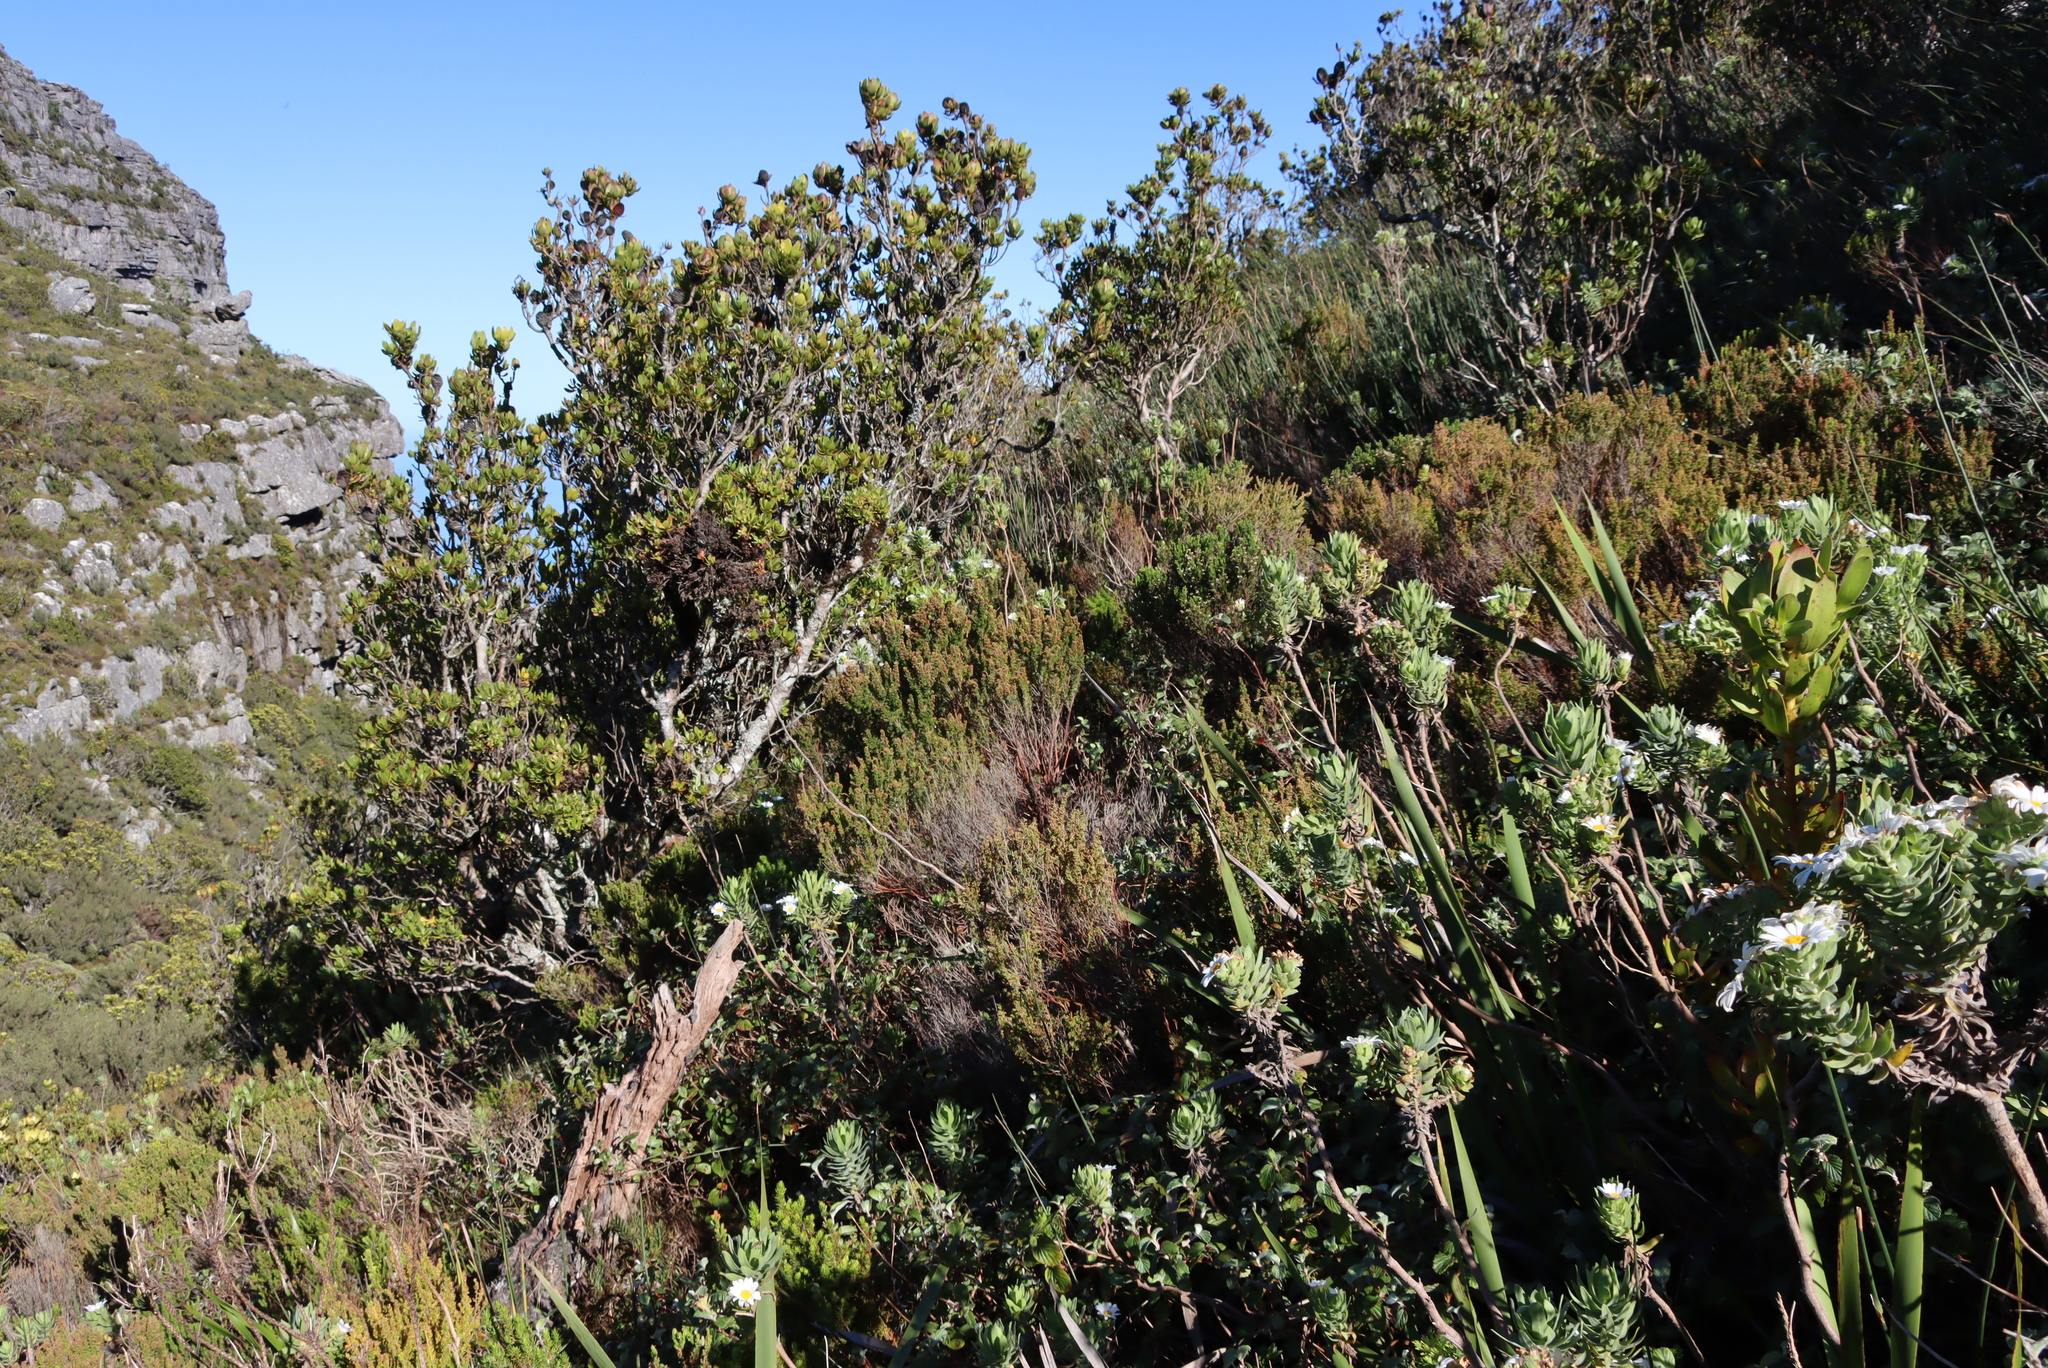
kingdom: Plantae
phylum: Tracheophyta
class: Magnoliopsida
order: Ericales
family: Ericaceae
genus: Erica
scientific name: Erica hispidula
